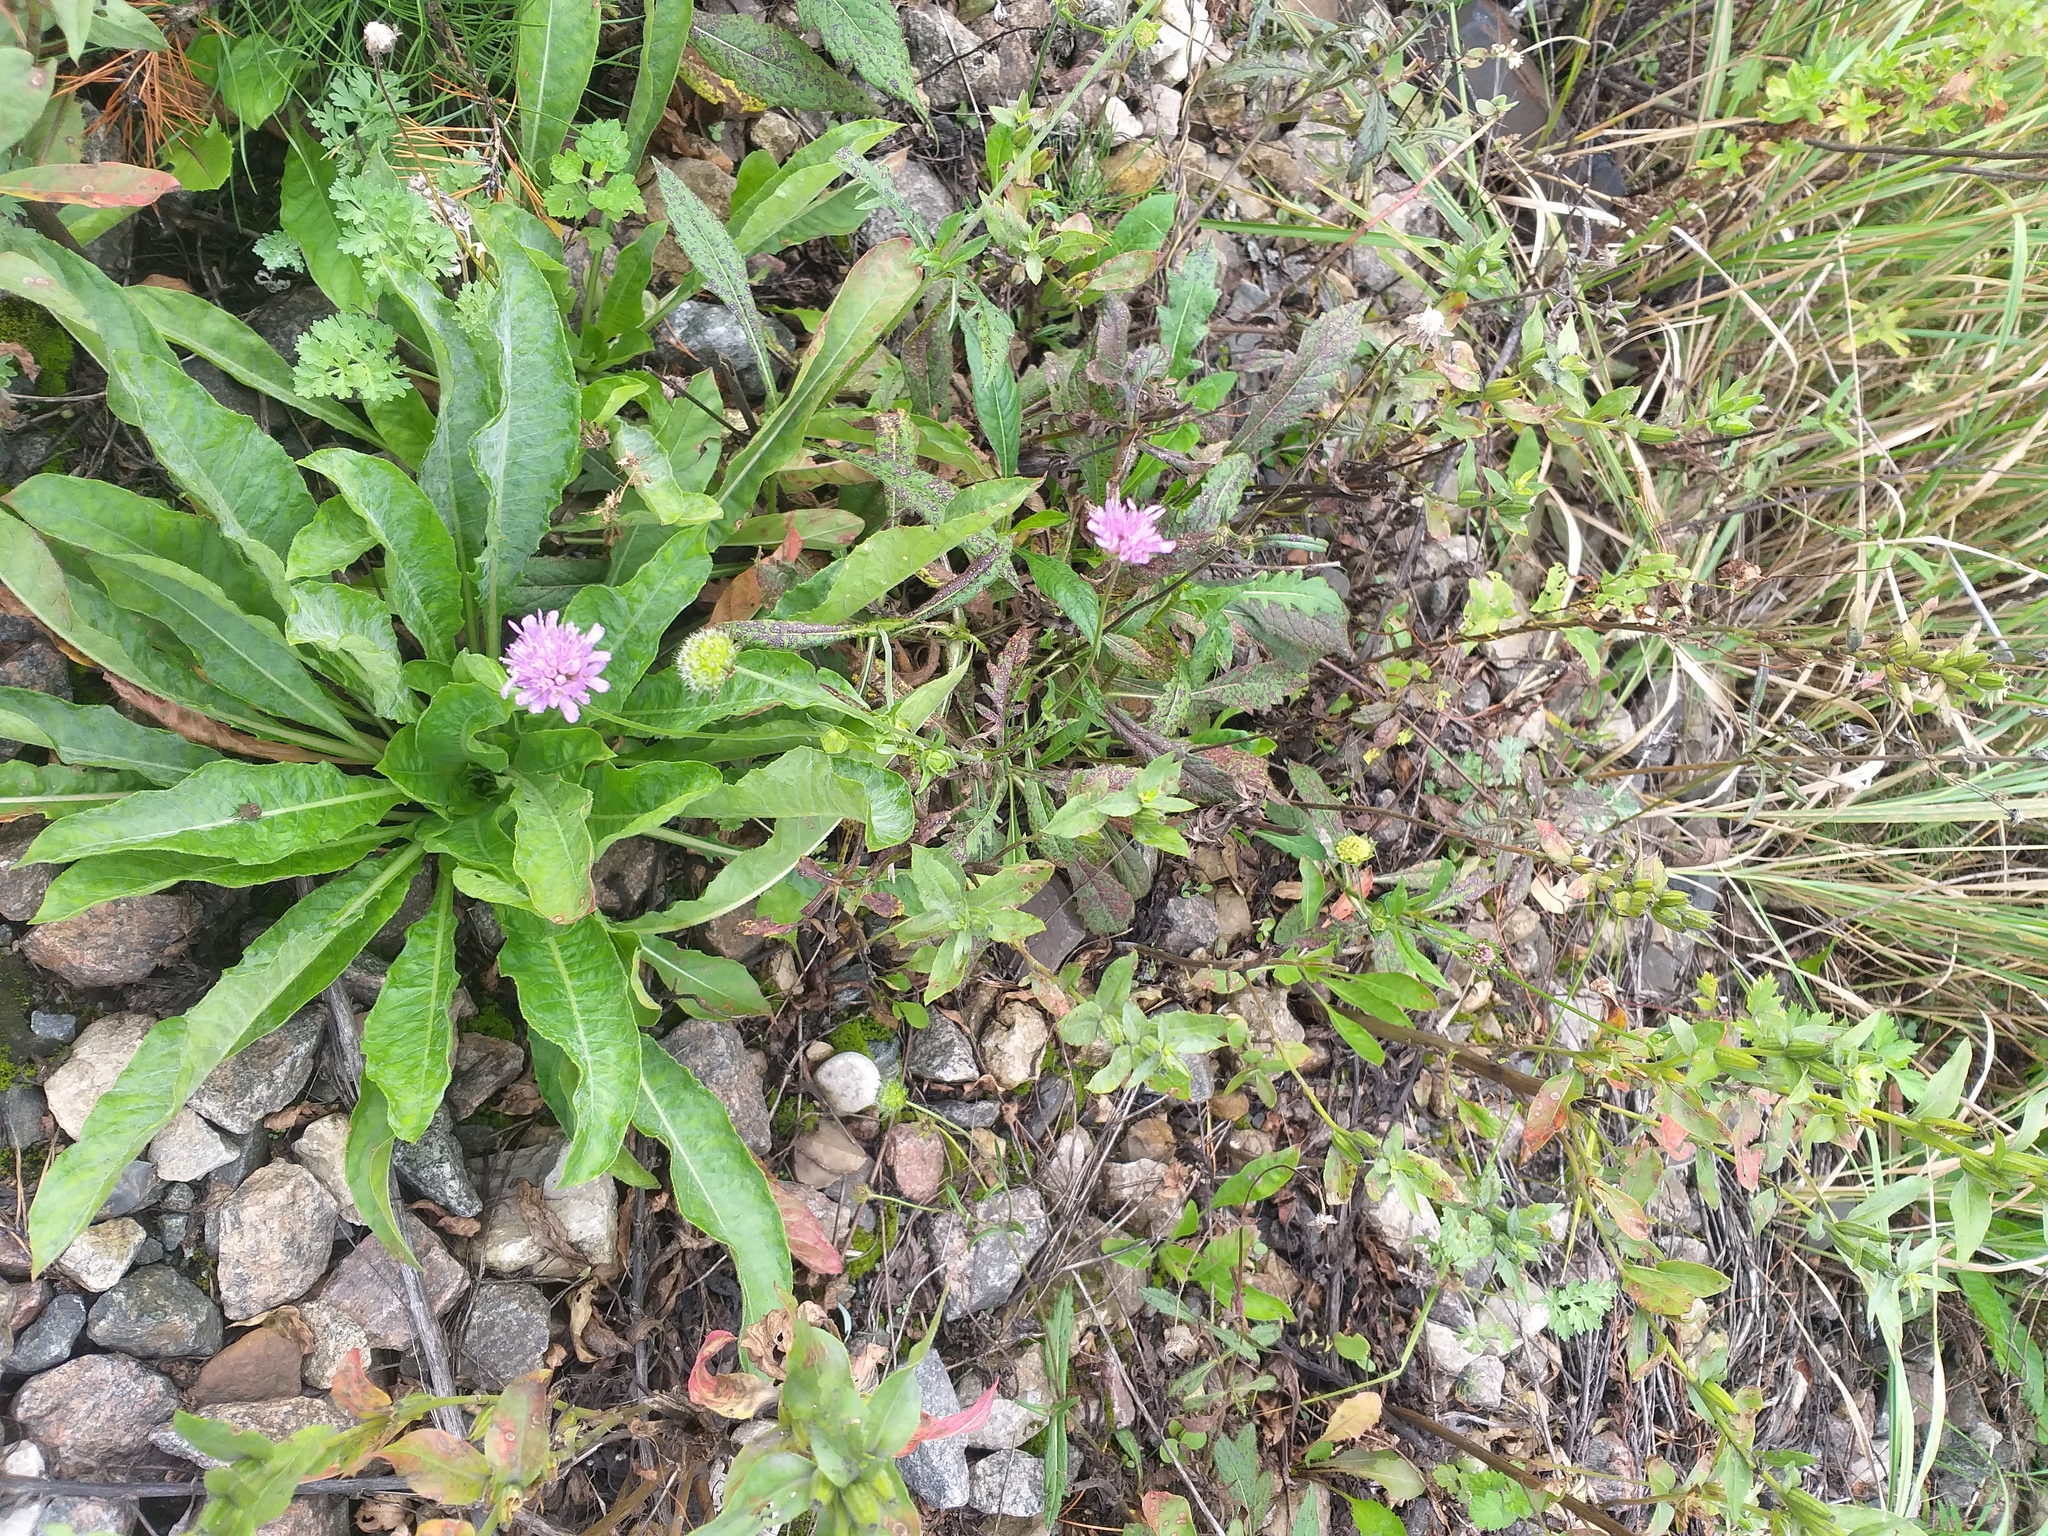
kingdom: Plantae
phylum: Tracheophyta
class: Magnoliopsida
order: Dipsacales
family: Caprifoliaceae
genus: Knautia
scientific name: Knautia arvensis
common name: Field scabiosa
